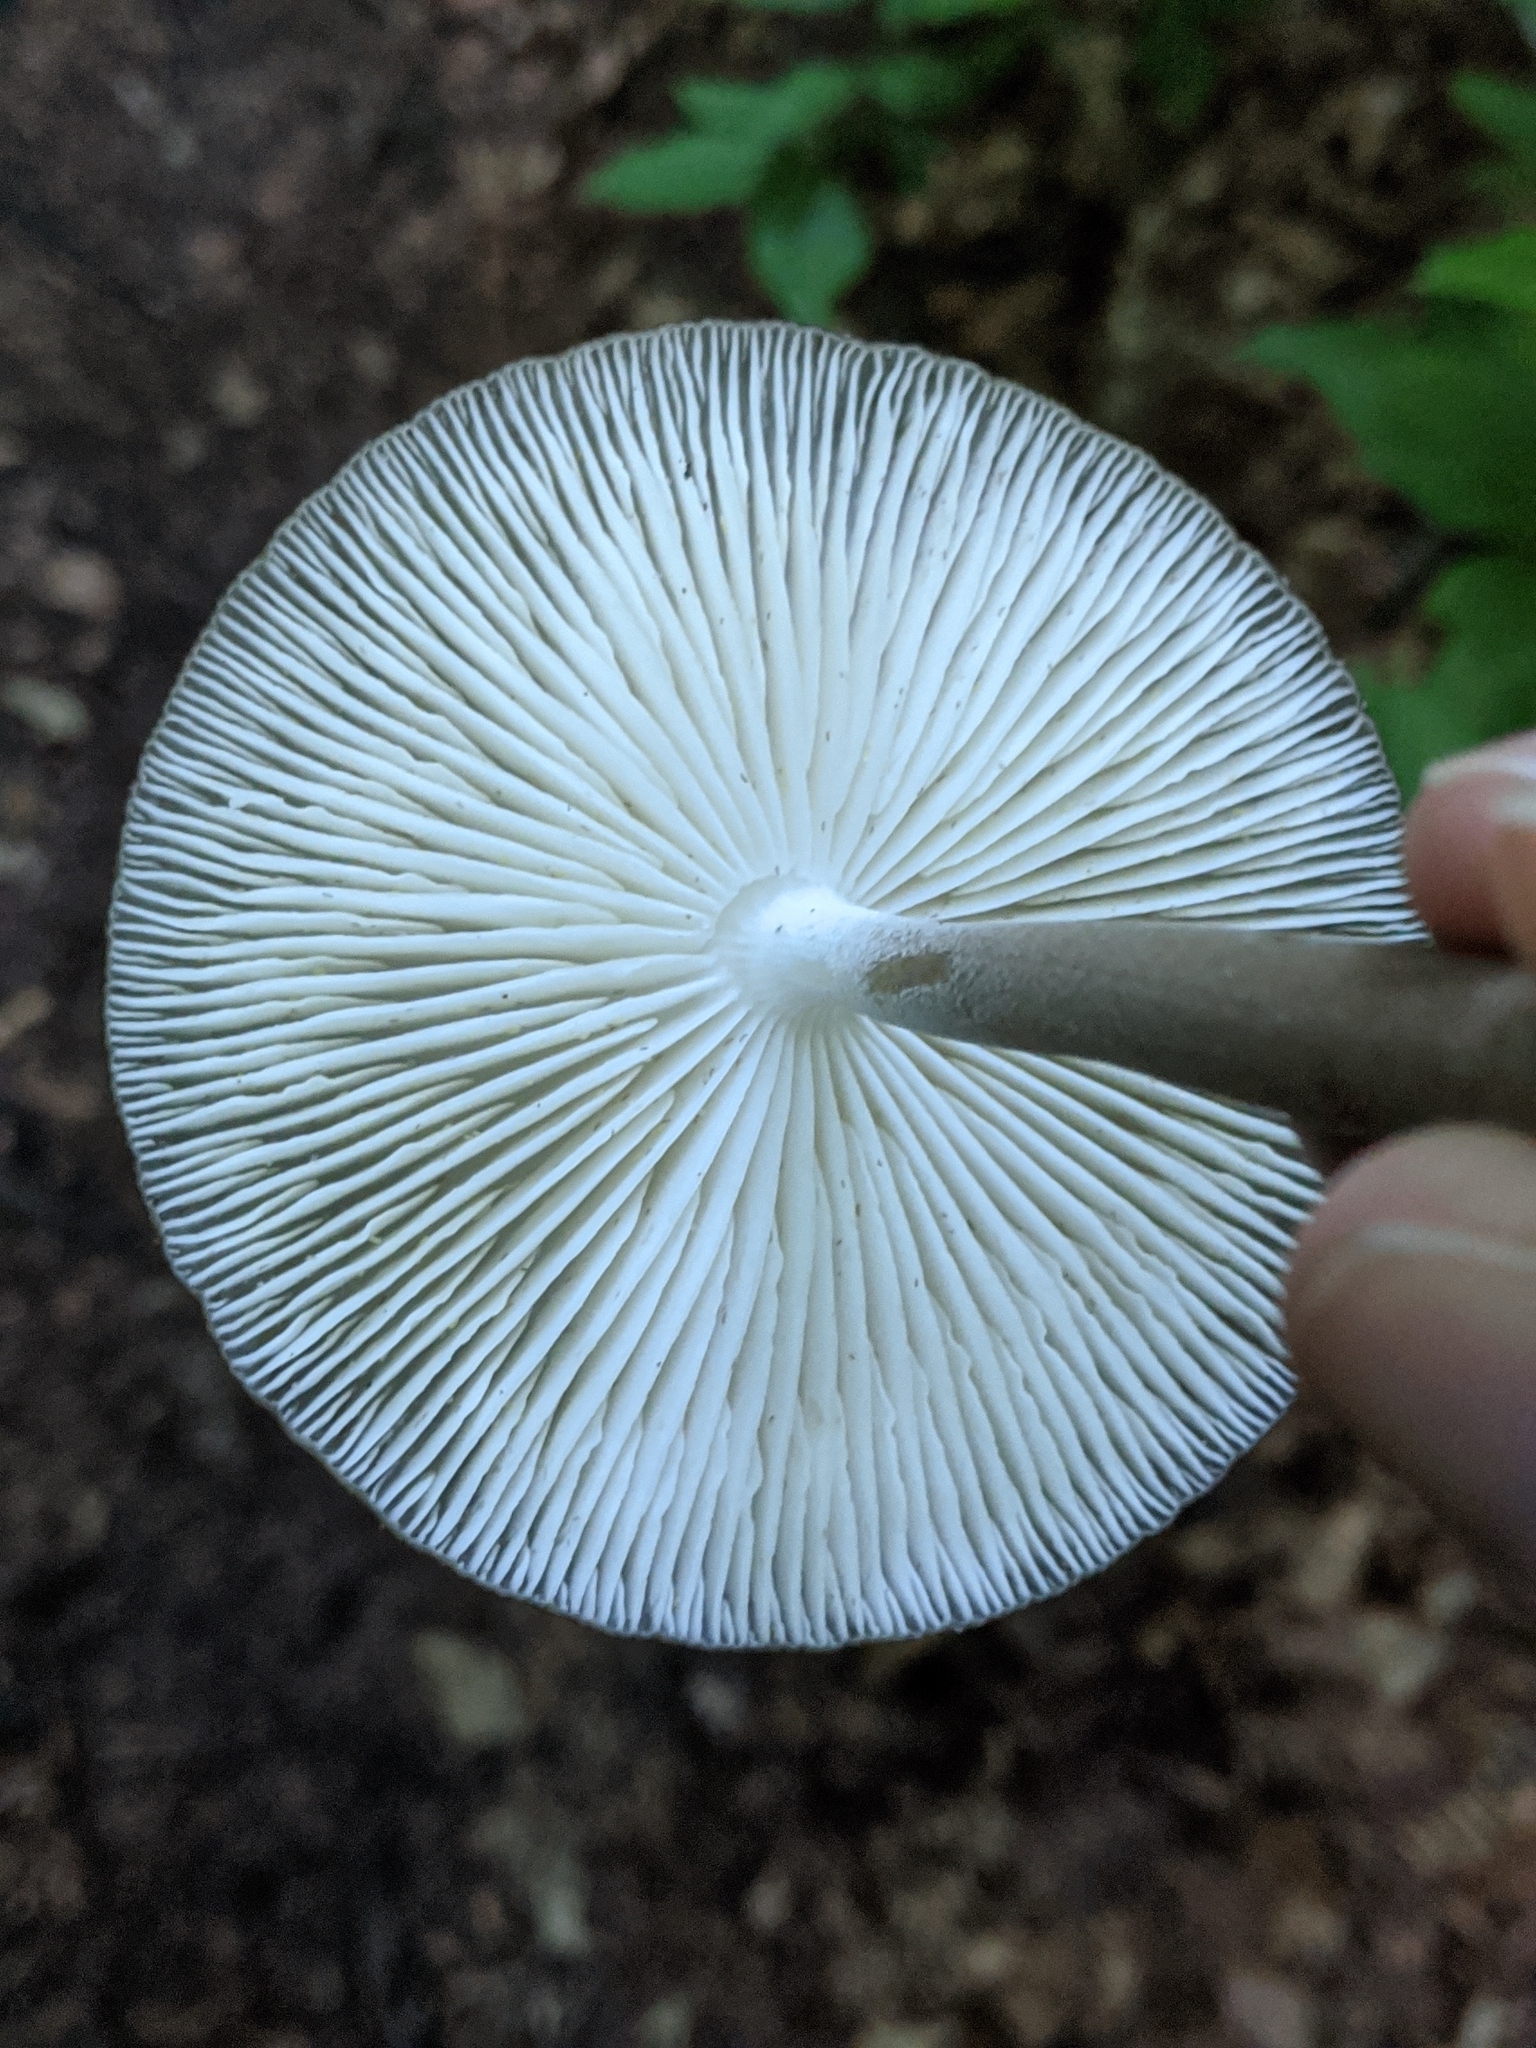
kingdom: Fungi
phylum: Basidiomycota
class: Agaricomycetes
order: Agaricales
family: Physalacriaceae
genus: Hymenopellis
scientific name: Hymenopellis furfuracea
